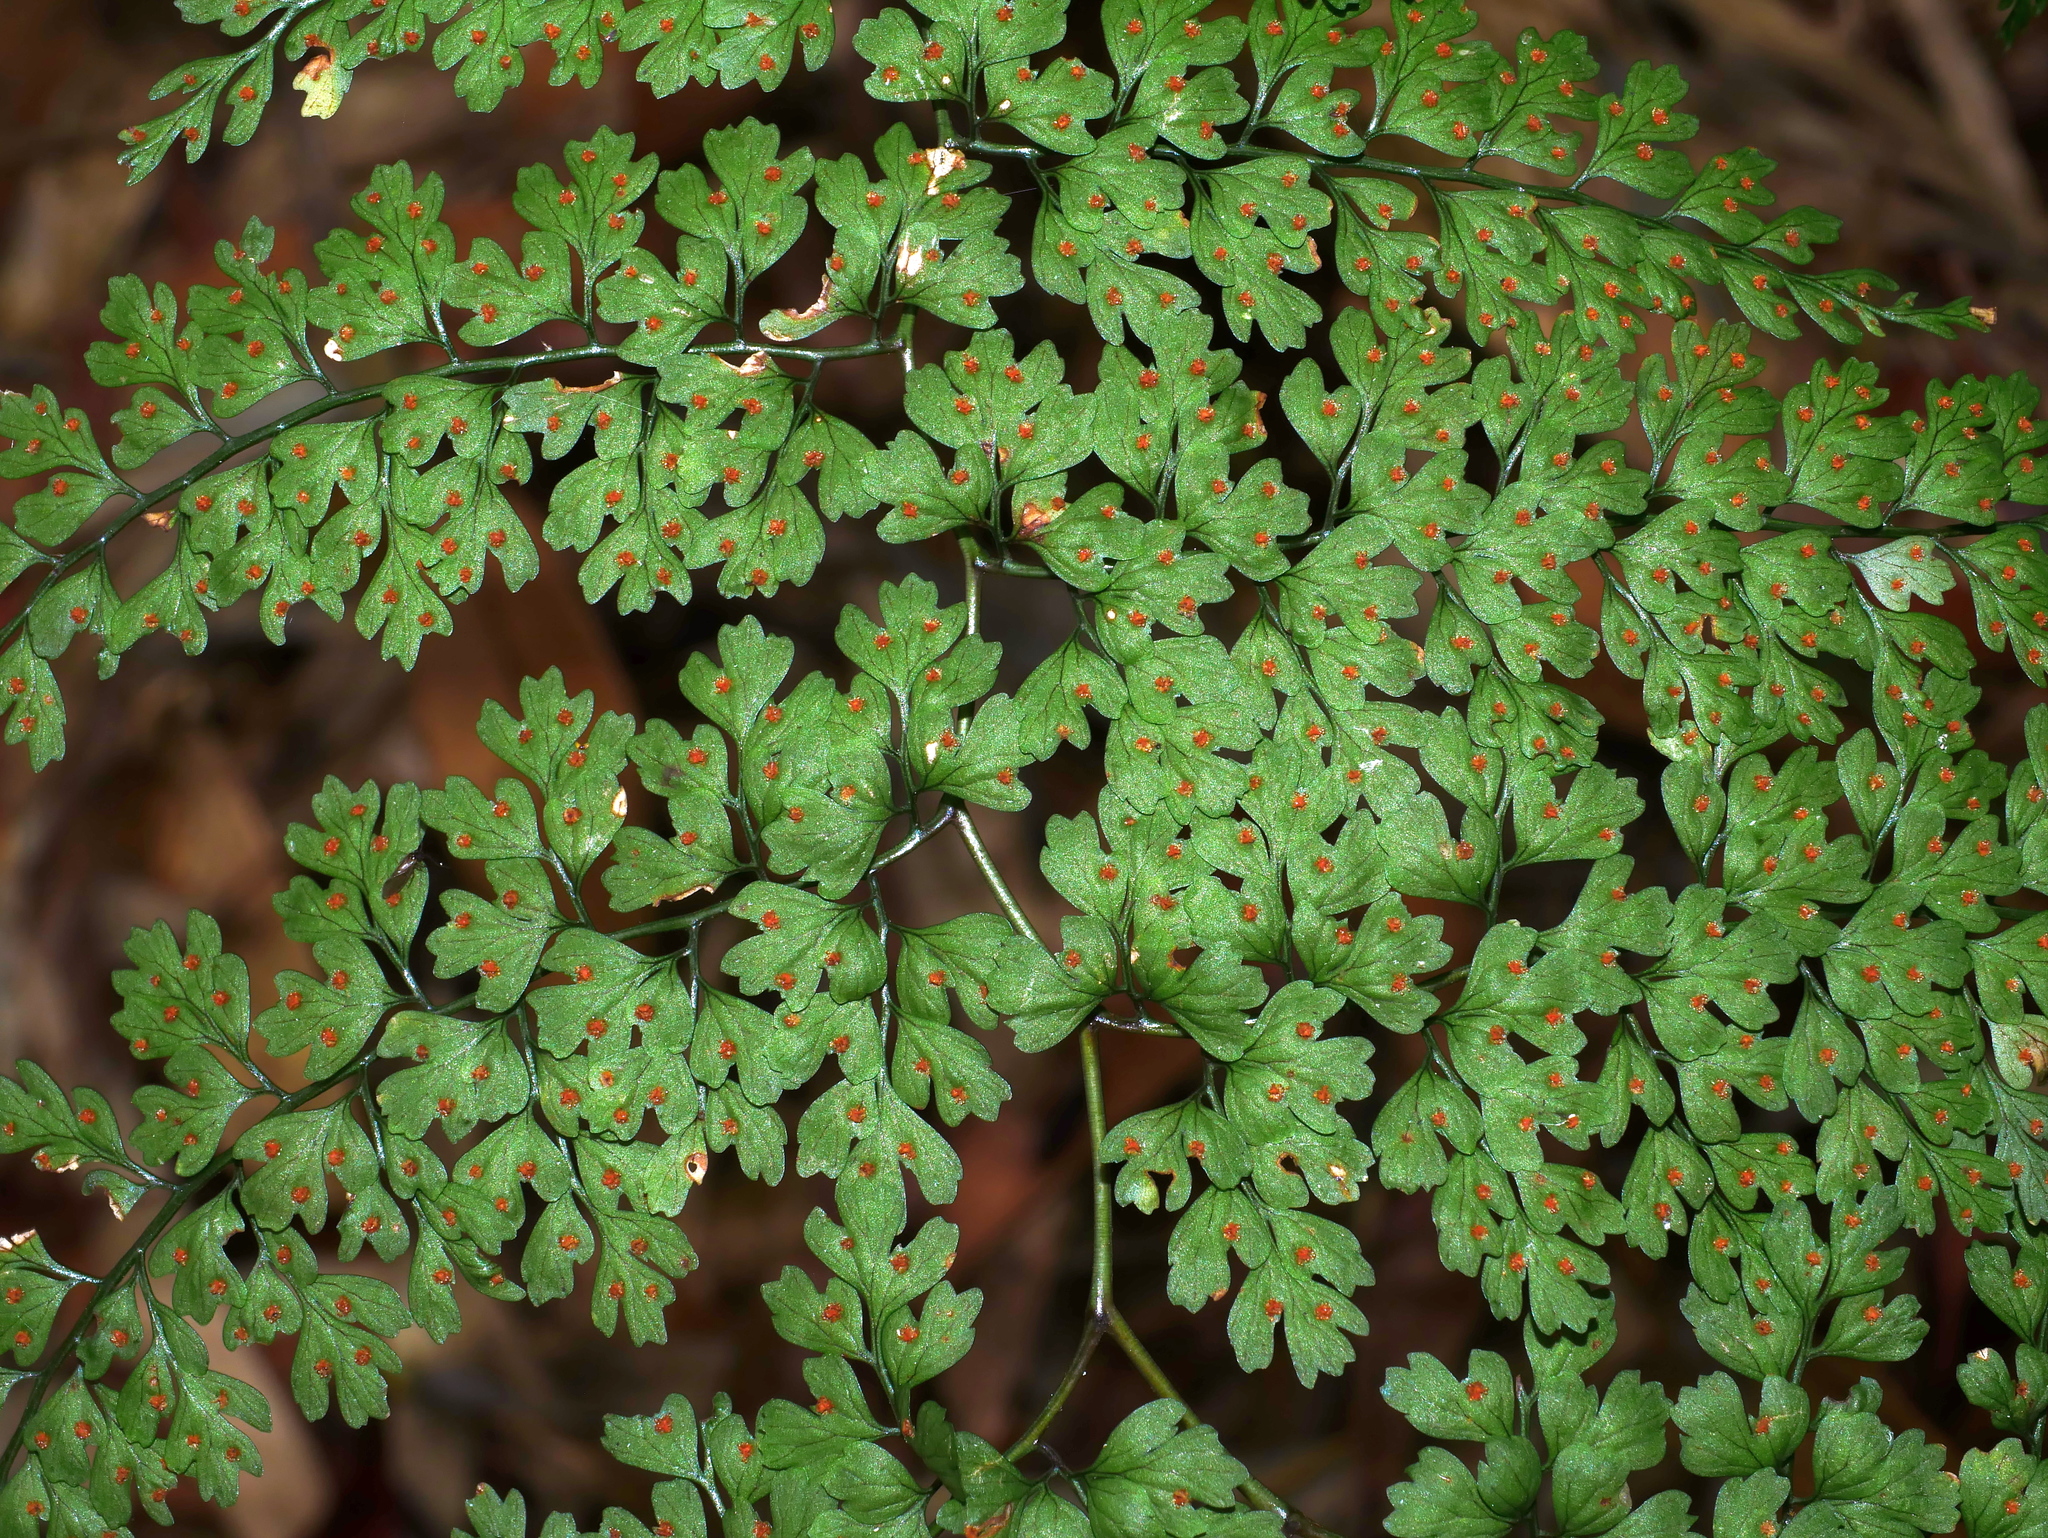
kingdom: Plantae
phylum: Tracheophyta
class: Polypodiopsida
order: Polypodiales
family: Dryopteridaceae
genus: Dryopteris
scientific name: Dryopteris diffracta
